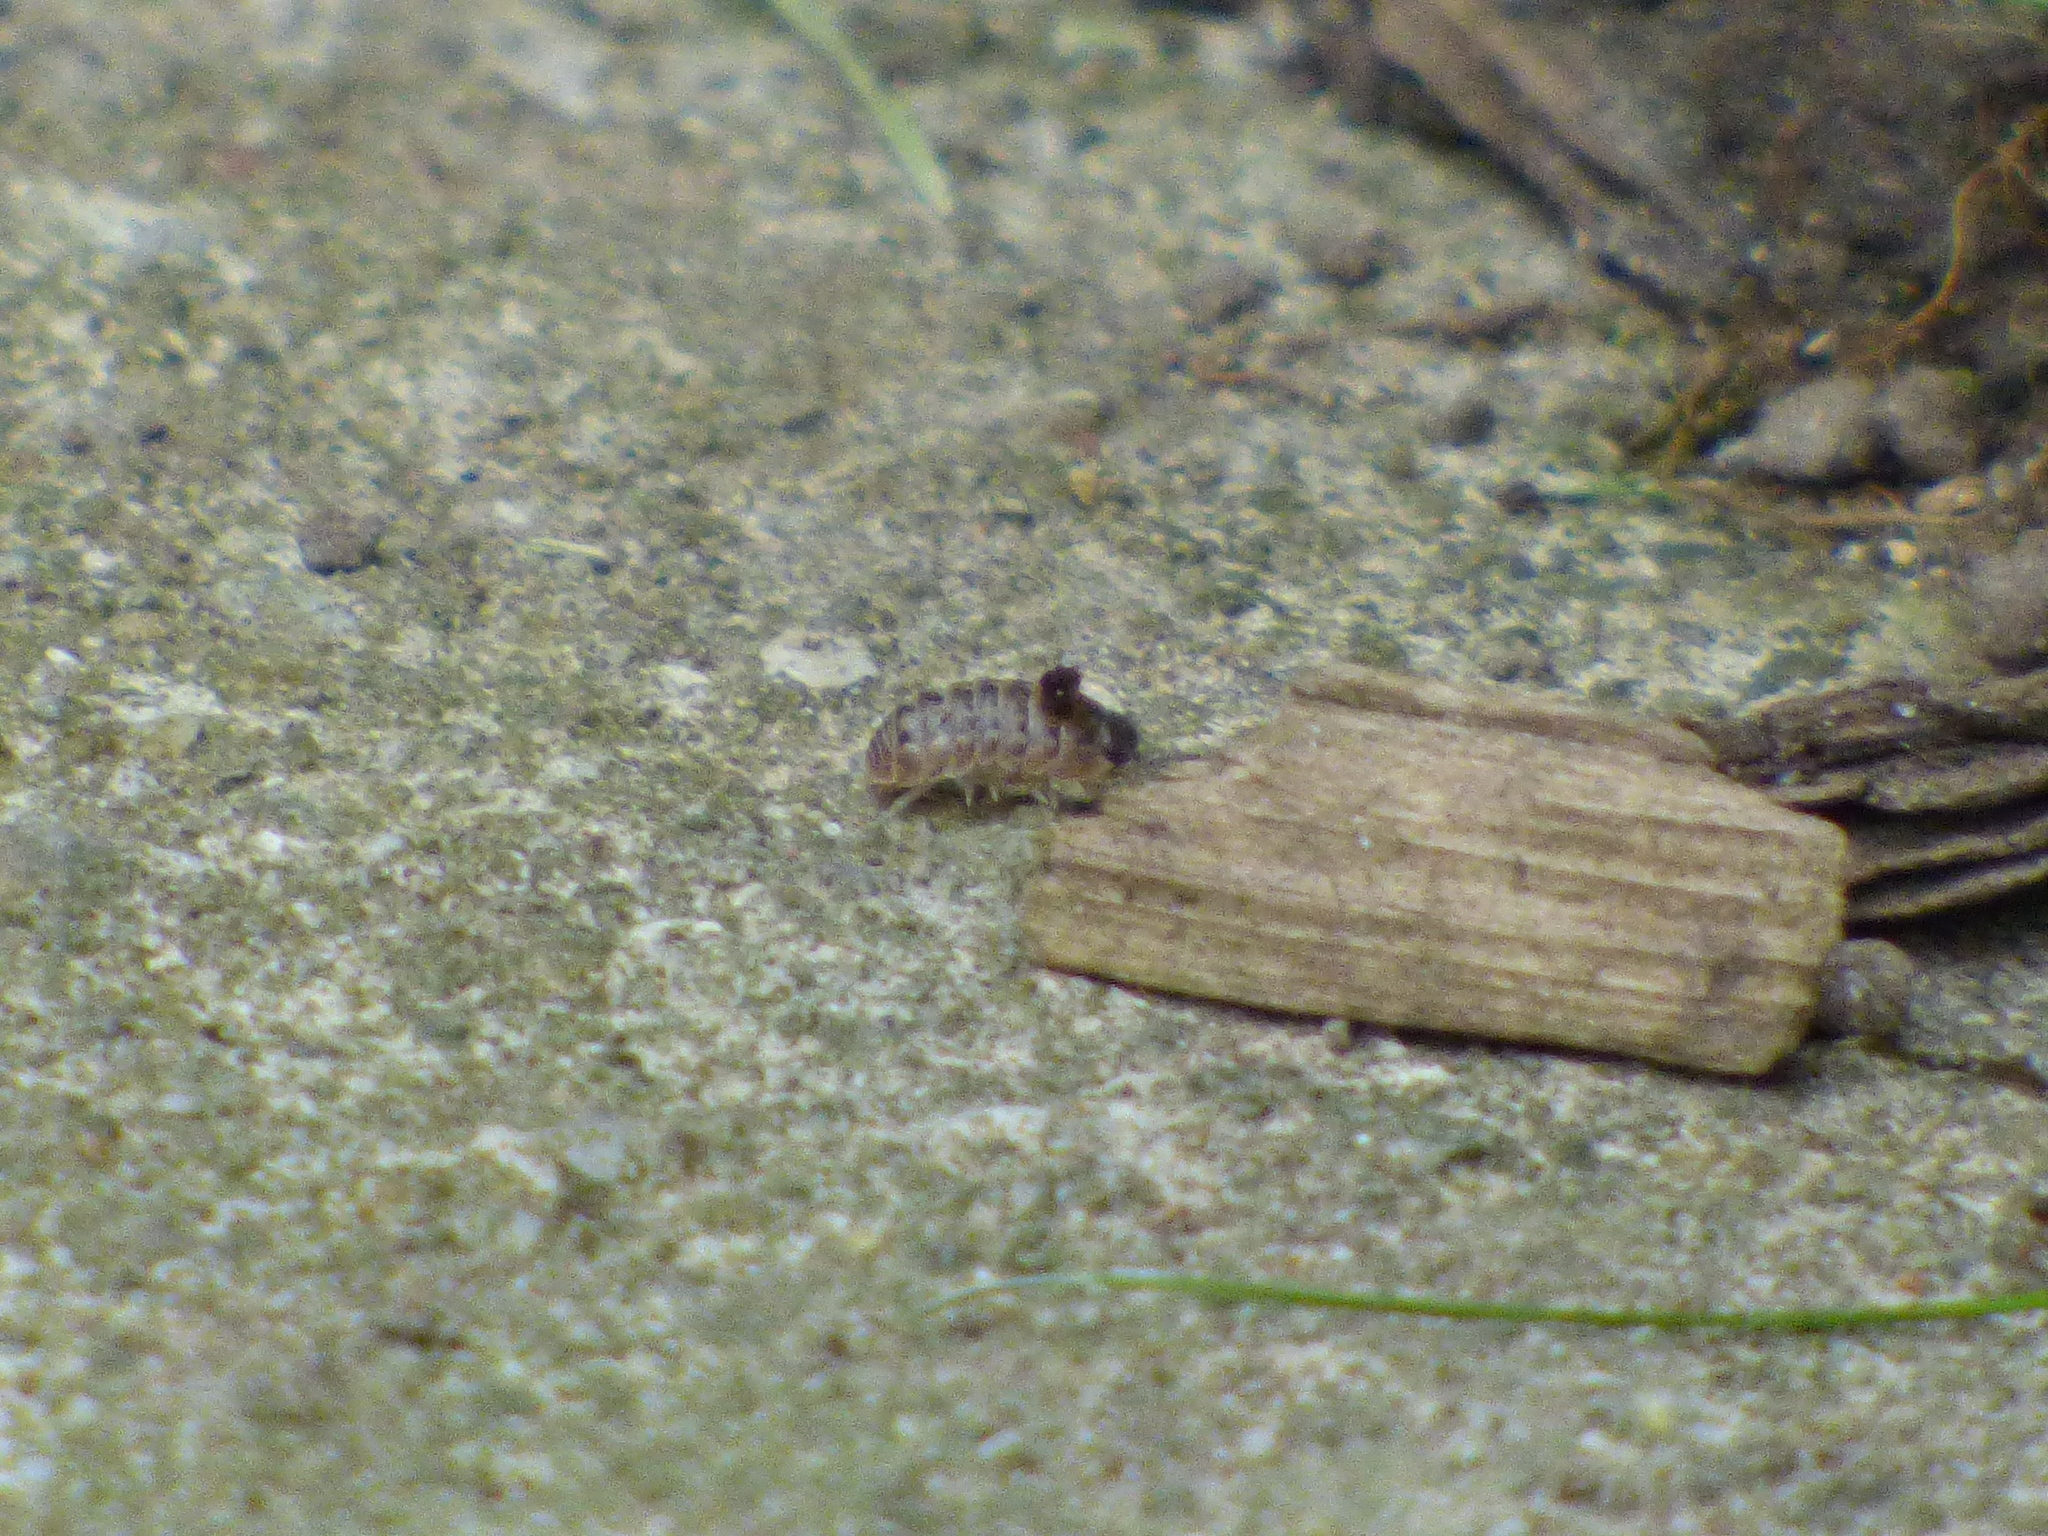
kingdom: Animalia
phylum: Arthropoda
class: Malacostraca
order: Isopoda
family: Armadillidiidae
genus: Armadillidium
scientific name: Armadillidium vulgare
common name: Common pill woodlouse
